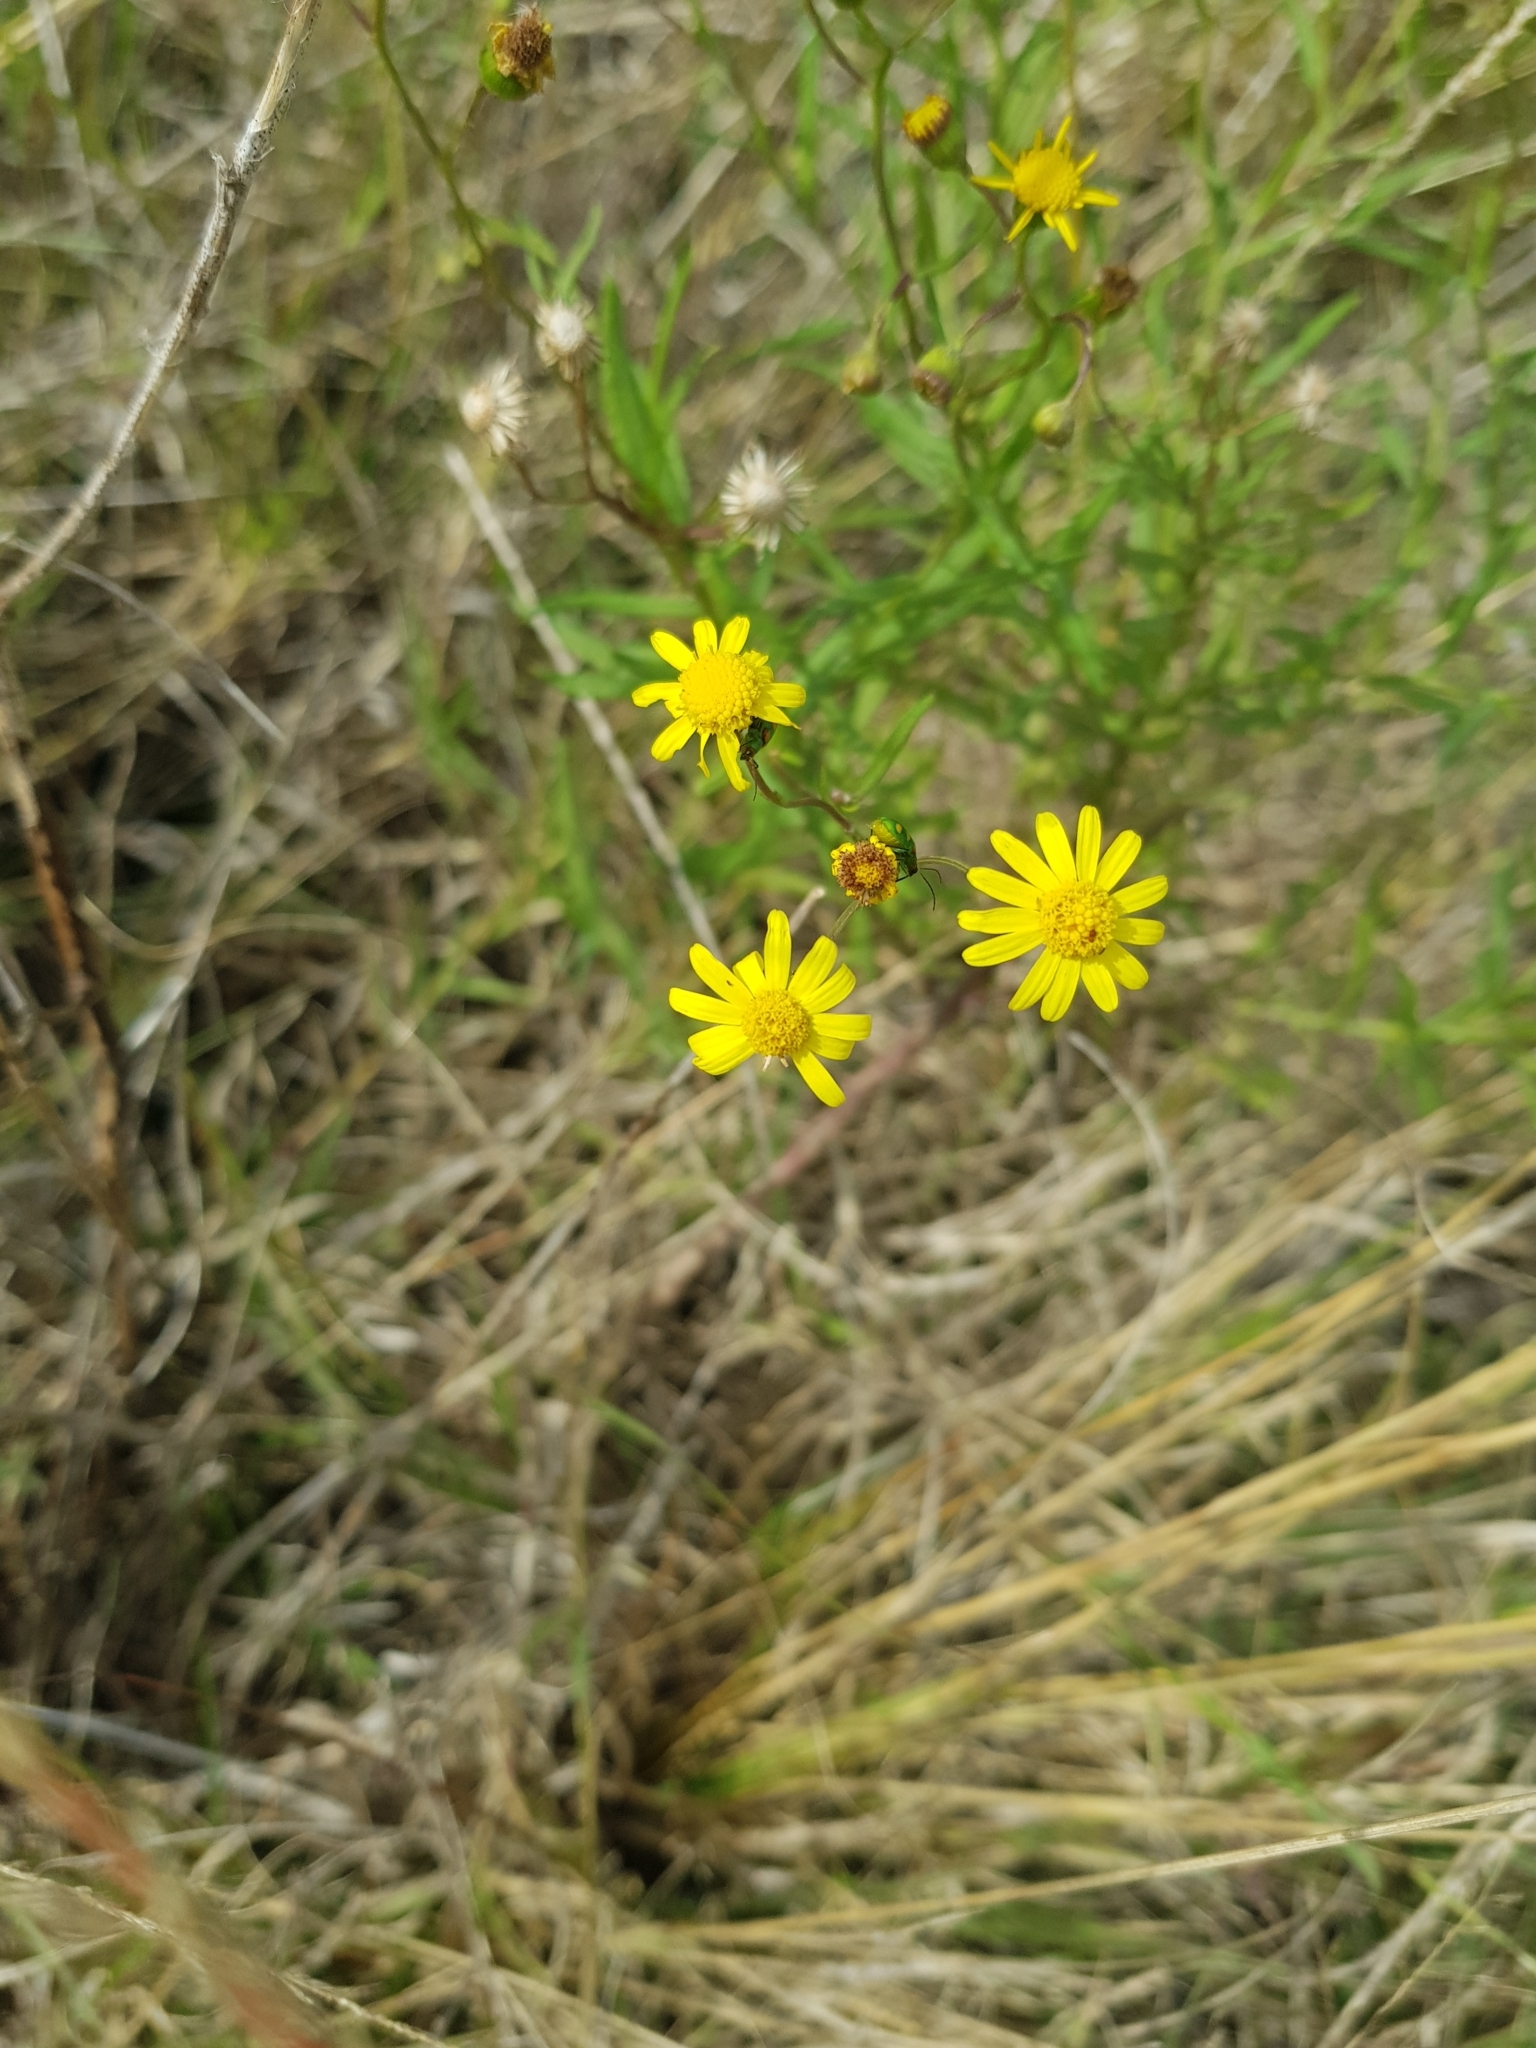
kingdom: Plantae
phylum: Tracheophyta
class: Magnoliopsida
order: Asterales
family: Asteraceae
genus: Senecio
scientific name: Senecio madagascariensis
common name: Madagascar ragwort
